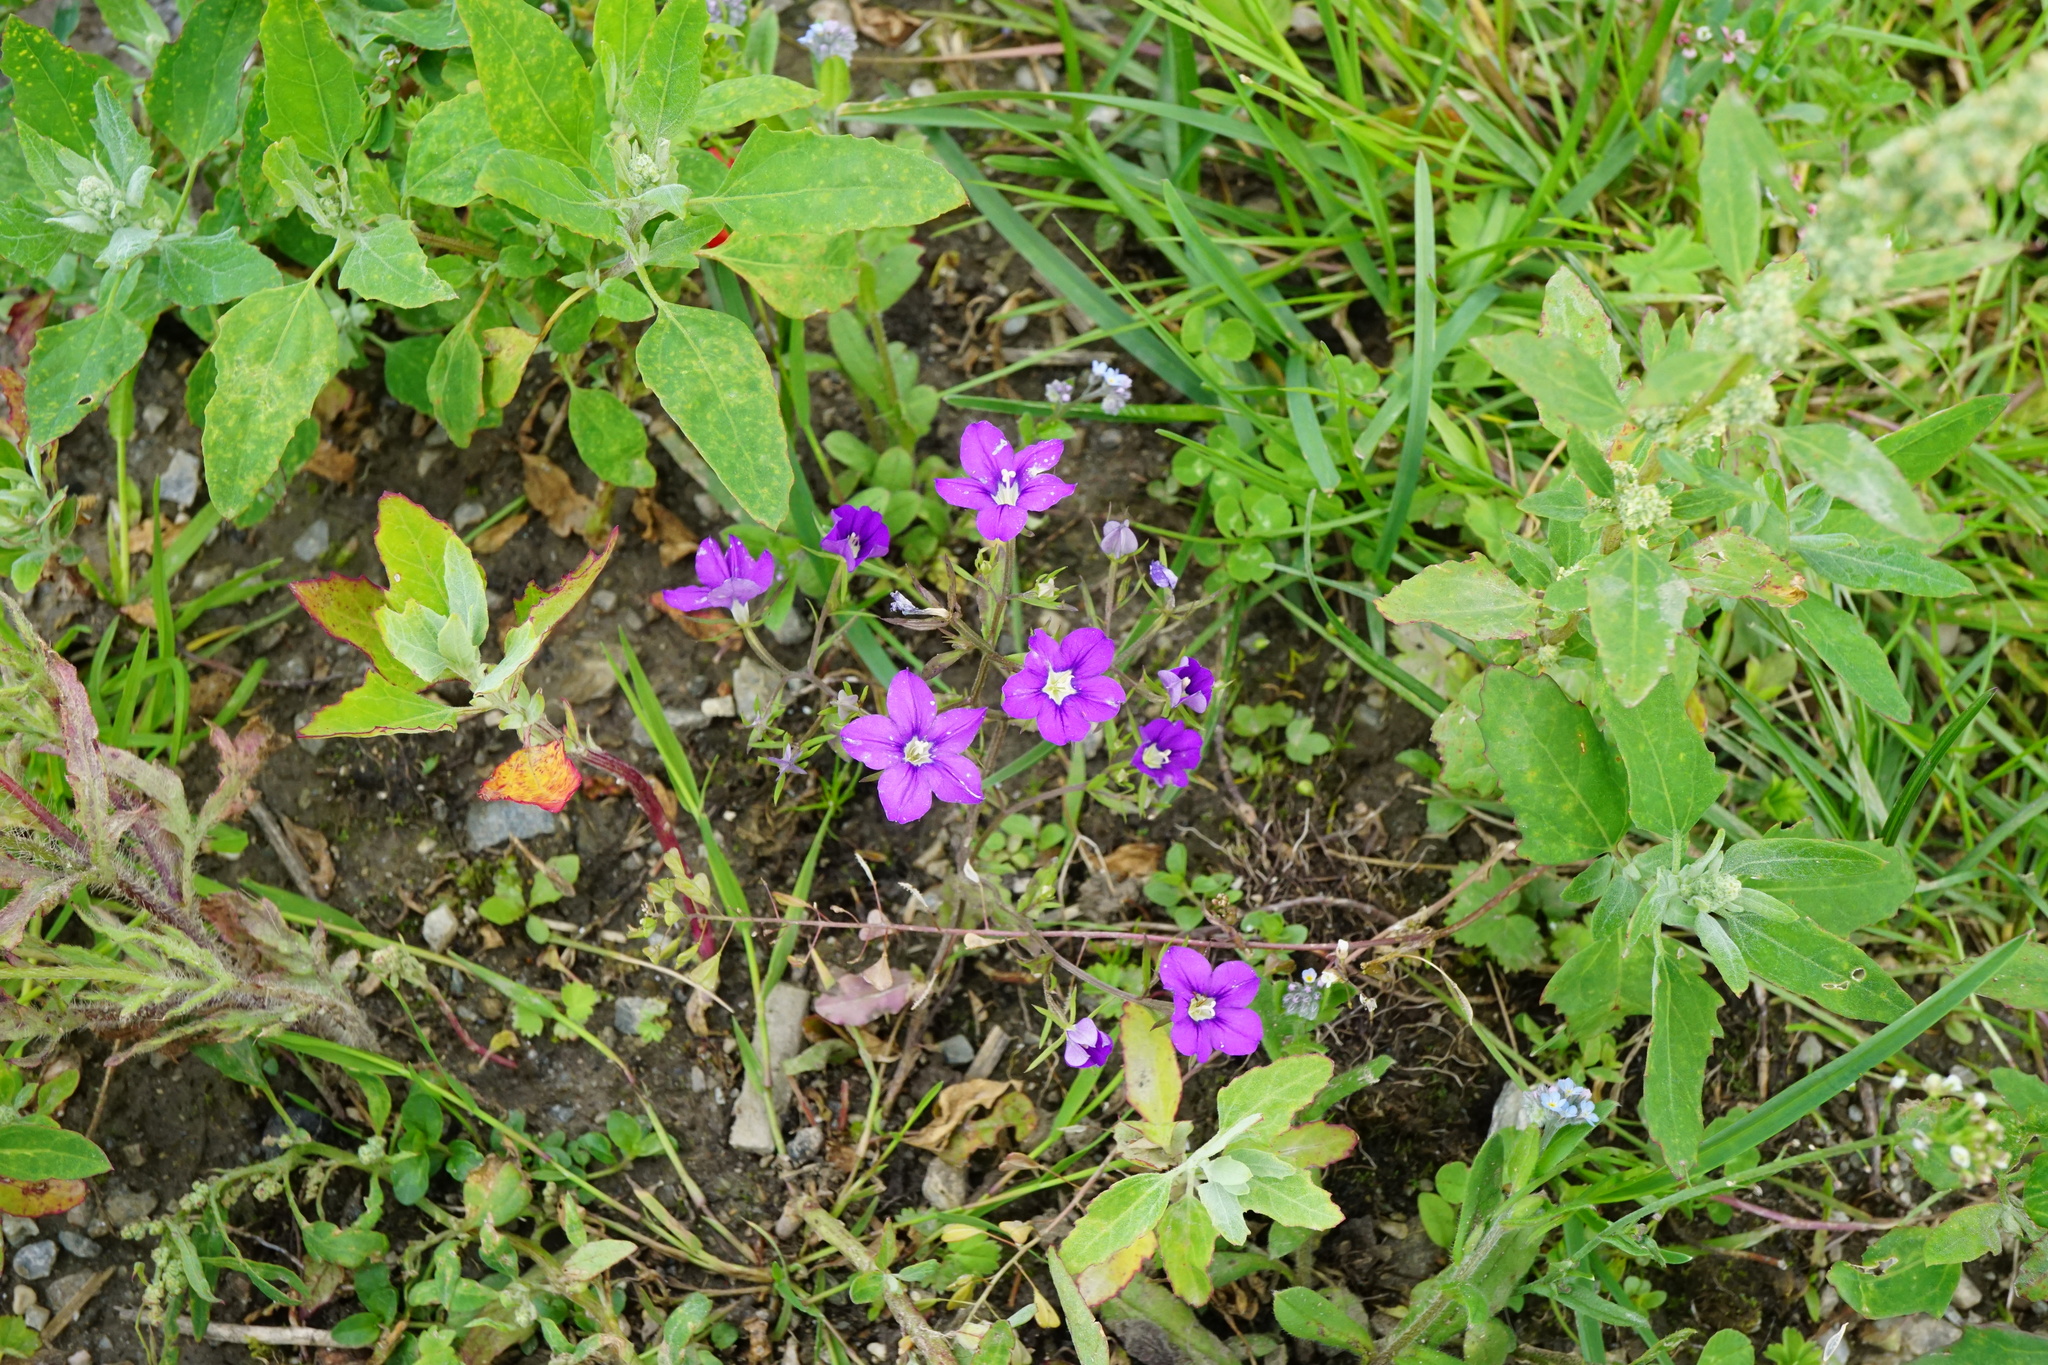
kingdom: Plantae
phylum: Tracheophyta
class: Magnoliopsida
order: Asterales
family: Campanulaceae
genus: Legousia
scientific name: Legousia speculum-veneris
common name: Large venus's-looking-glass
